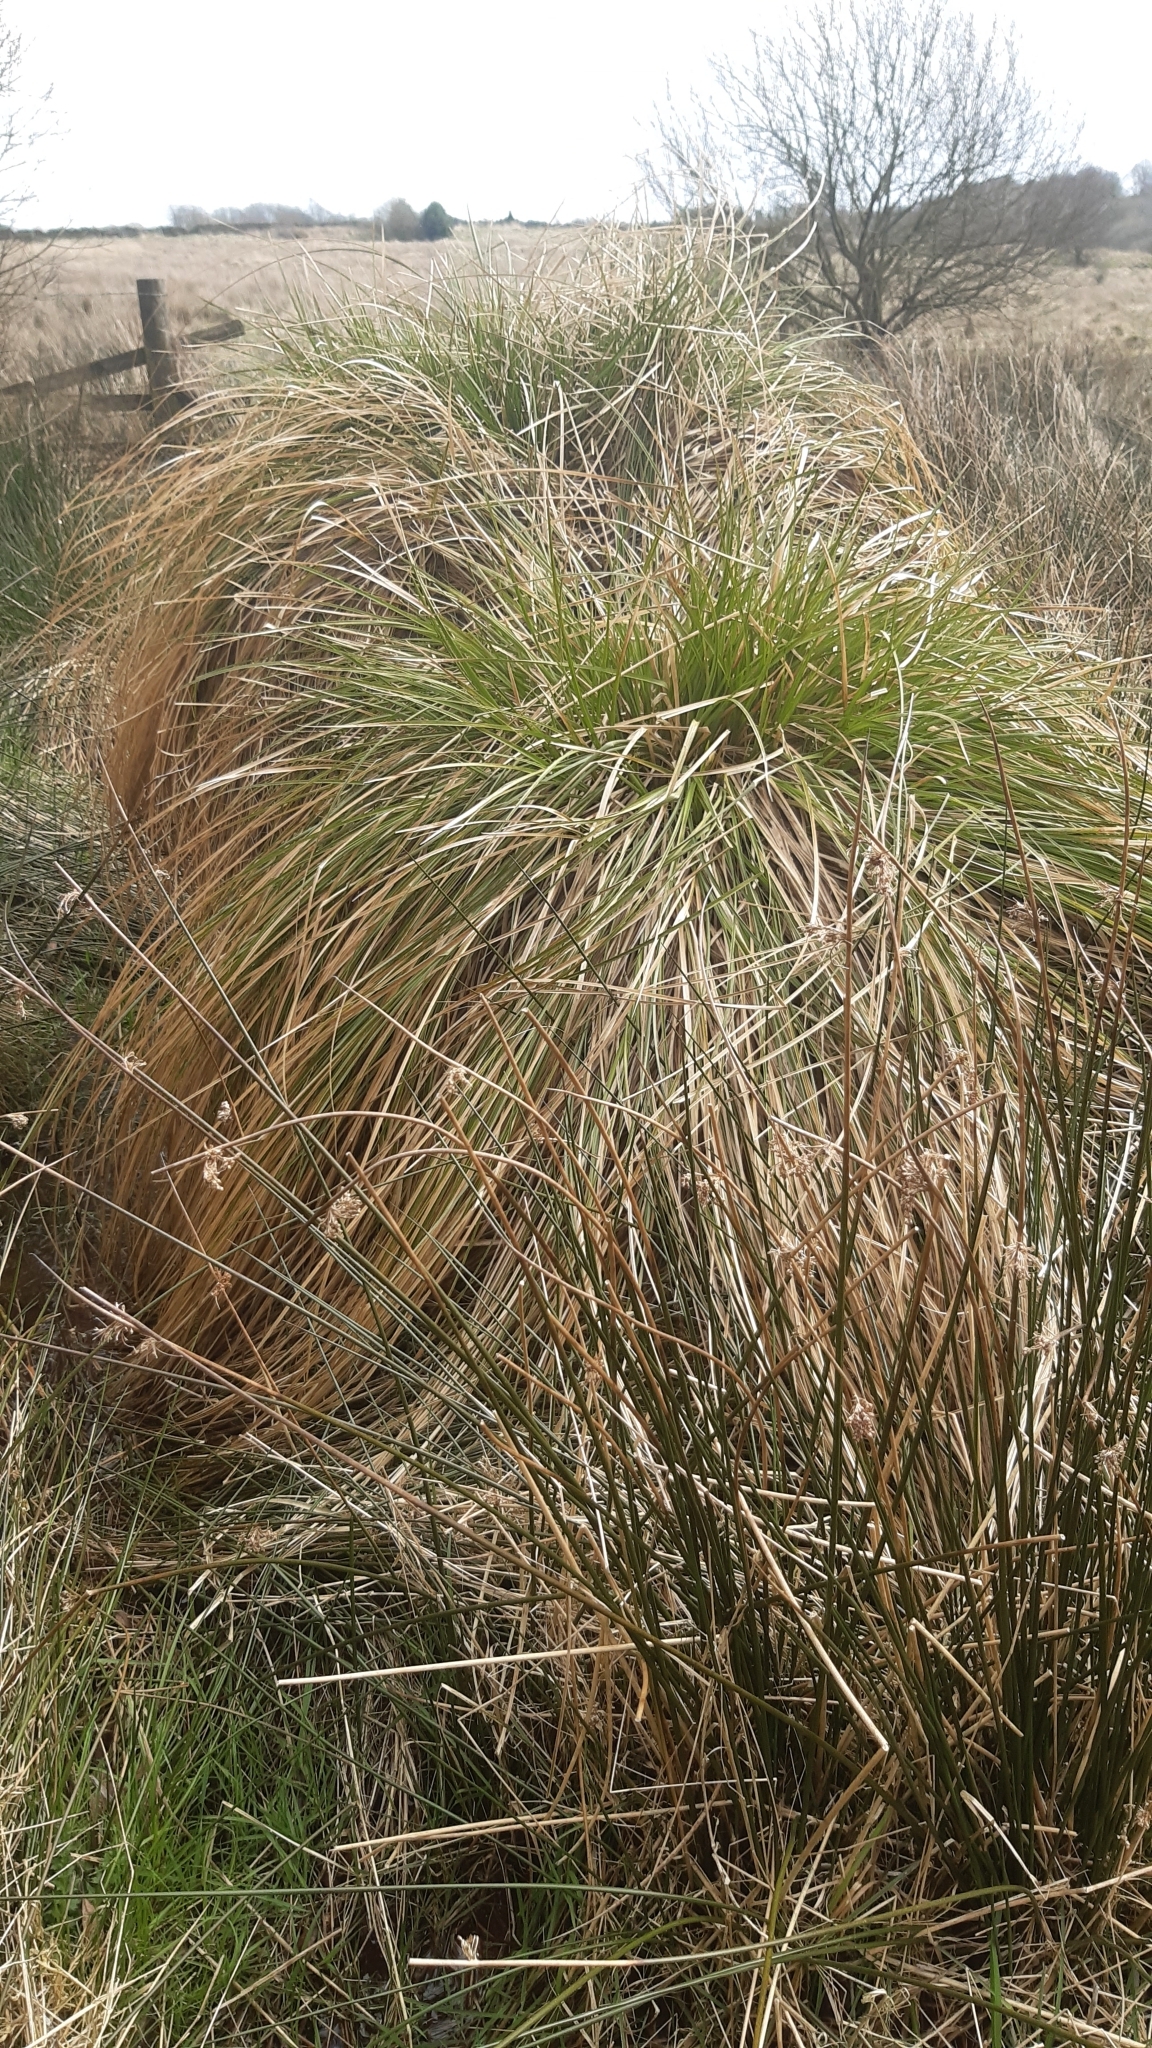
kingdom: Plantae
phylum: Tracheophyta
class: Liliopsida
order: Poales
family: Cyperaceae
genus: Carex
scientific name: Carex paniculata
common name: Greater tussock-sedge
